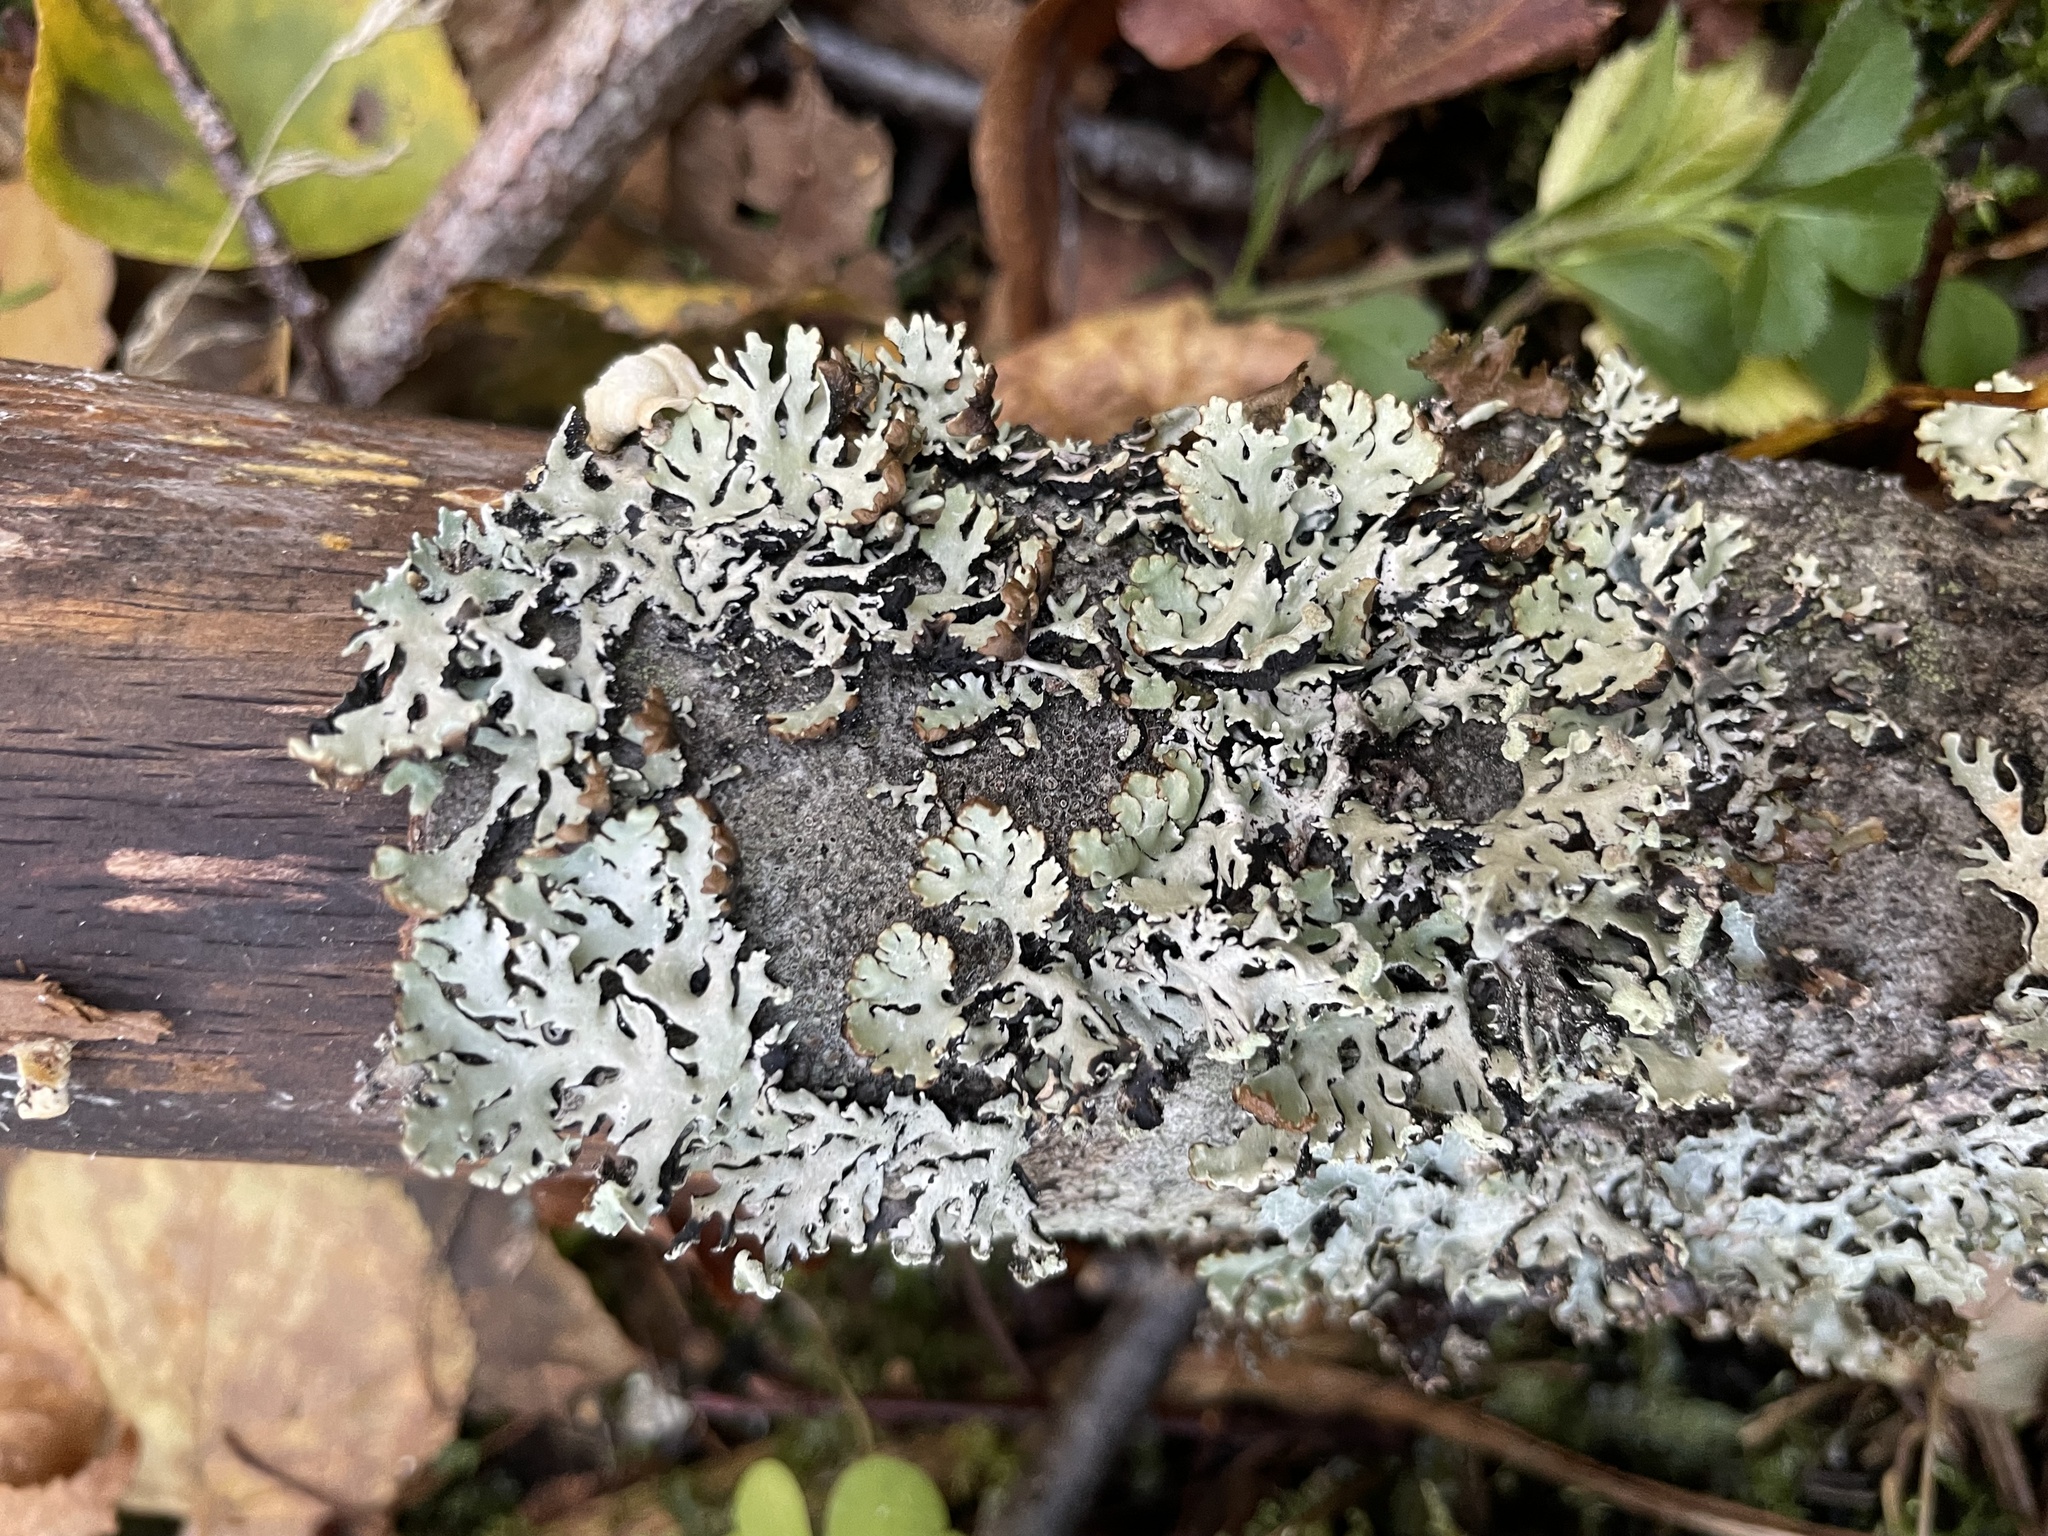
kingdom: Fungi
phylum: Ascomycota
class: Lecanoromycetes
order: Lecanorales
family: Parmeliaceae
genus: Hypogymnia
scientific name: Hypogymnia physodes
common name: Dark crottle
